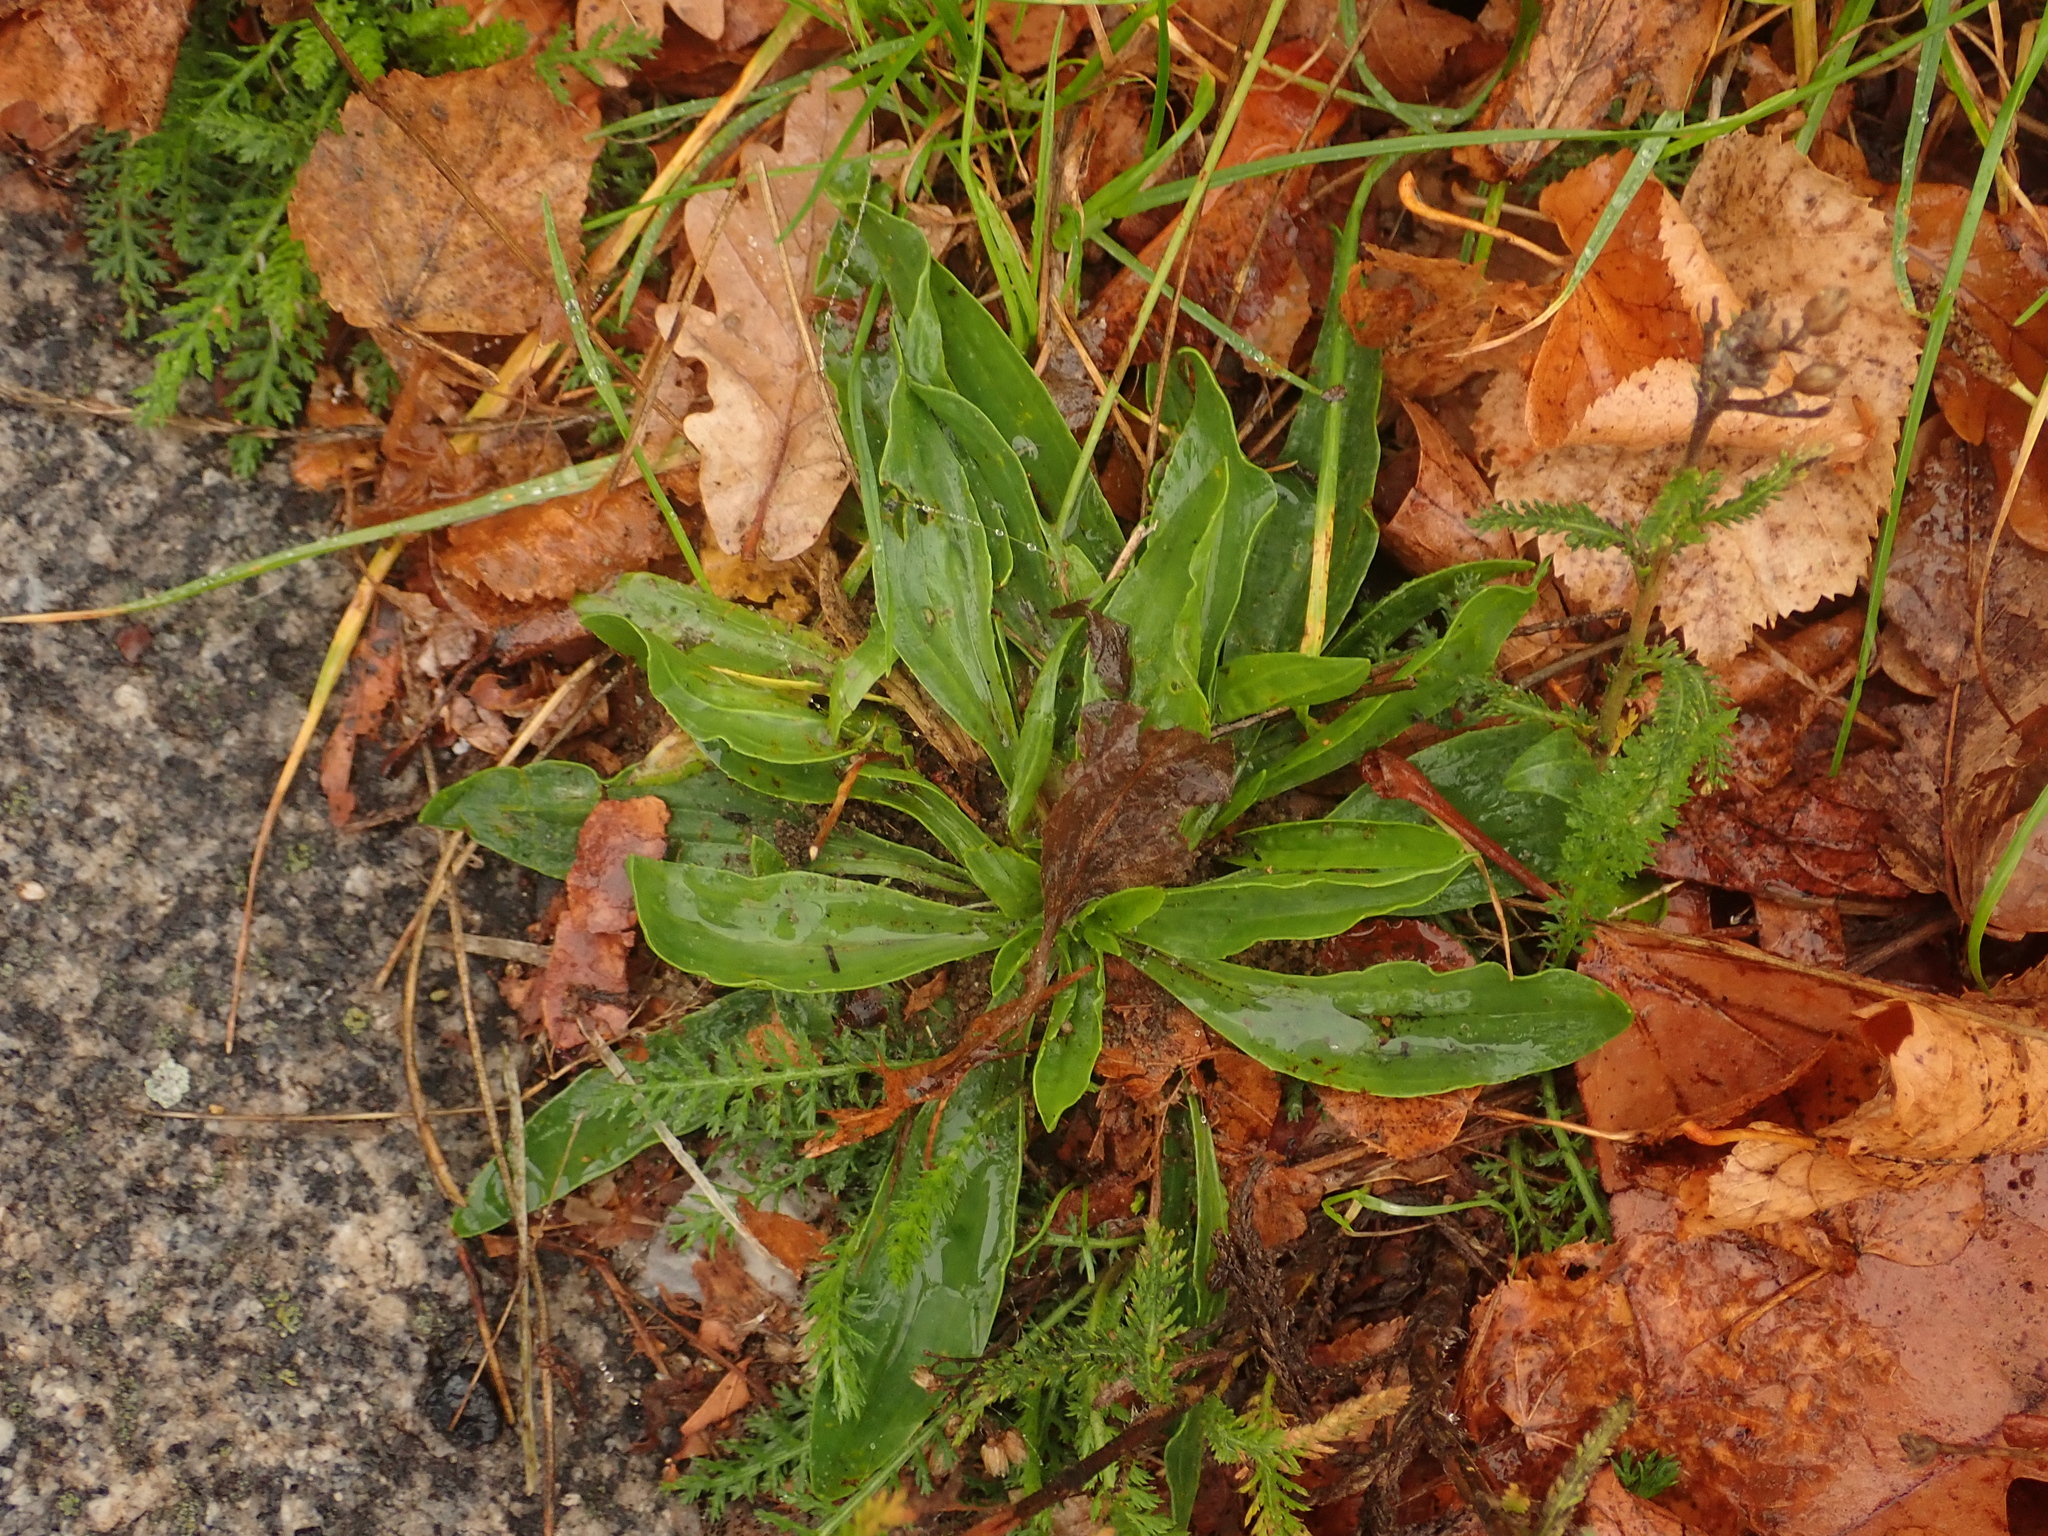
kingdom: Plantae
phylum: Tracheophyta
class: Magnoliopsida
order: Lamiales
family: Plantaginaceae
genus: Plantago
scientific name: Plantago lanceolata
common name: Ribwort plantain
